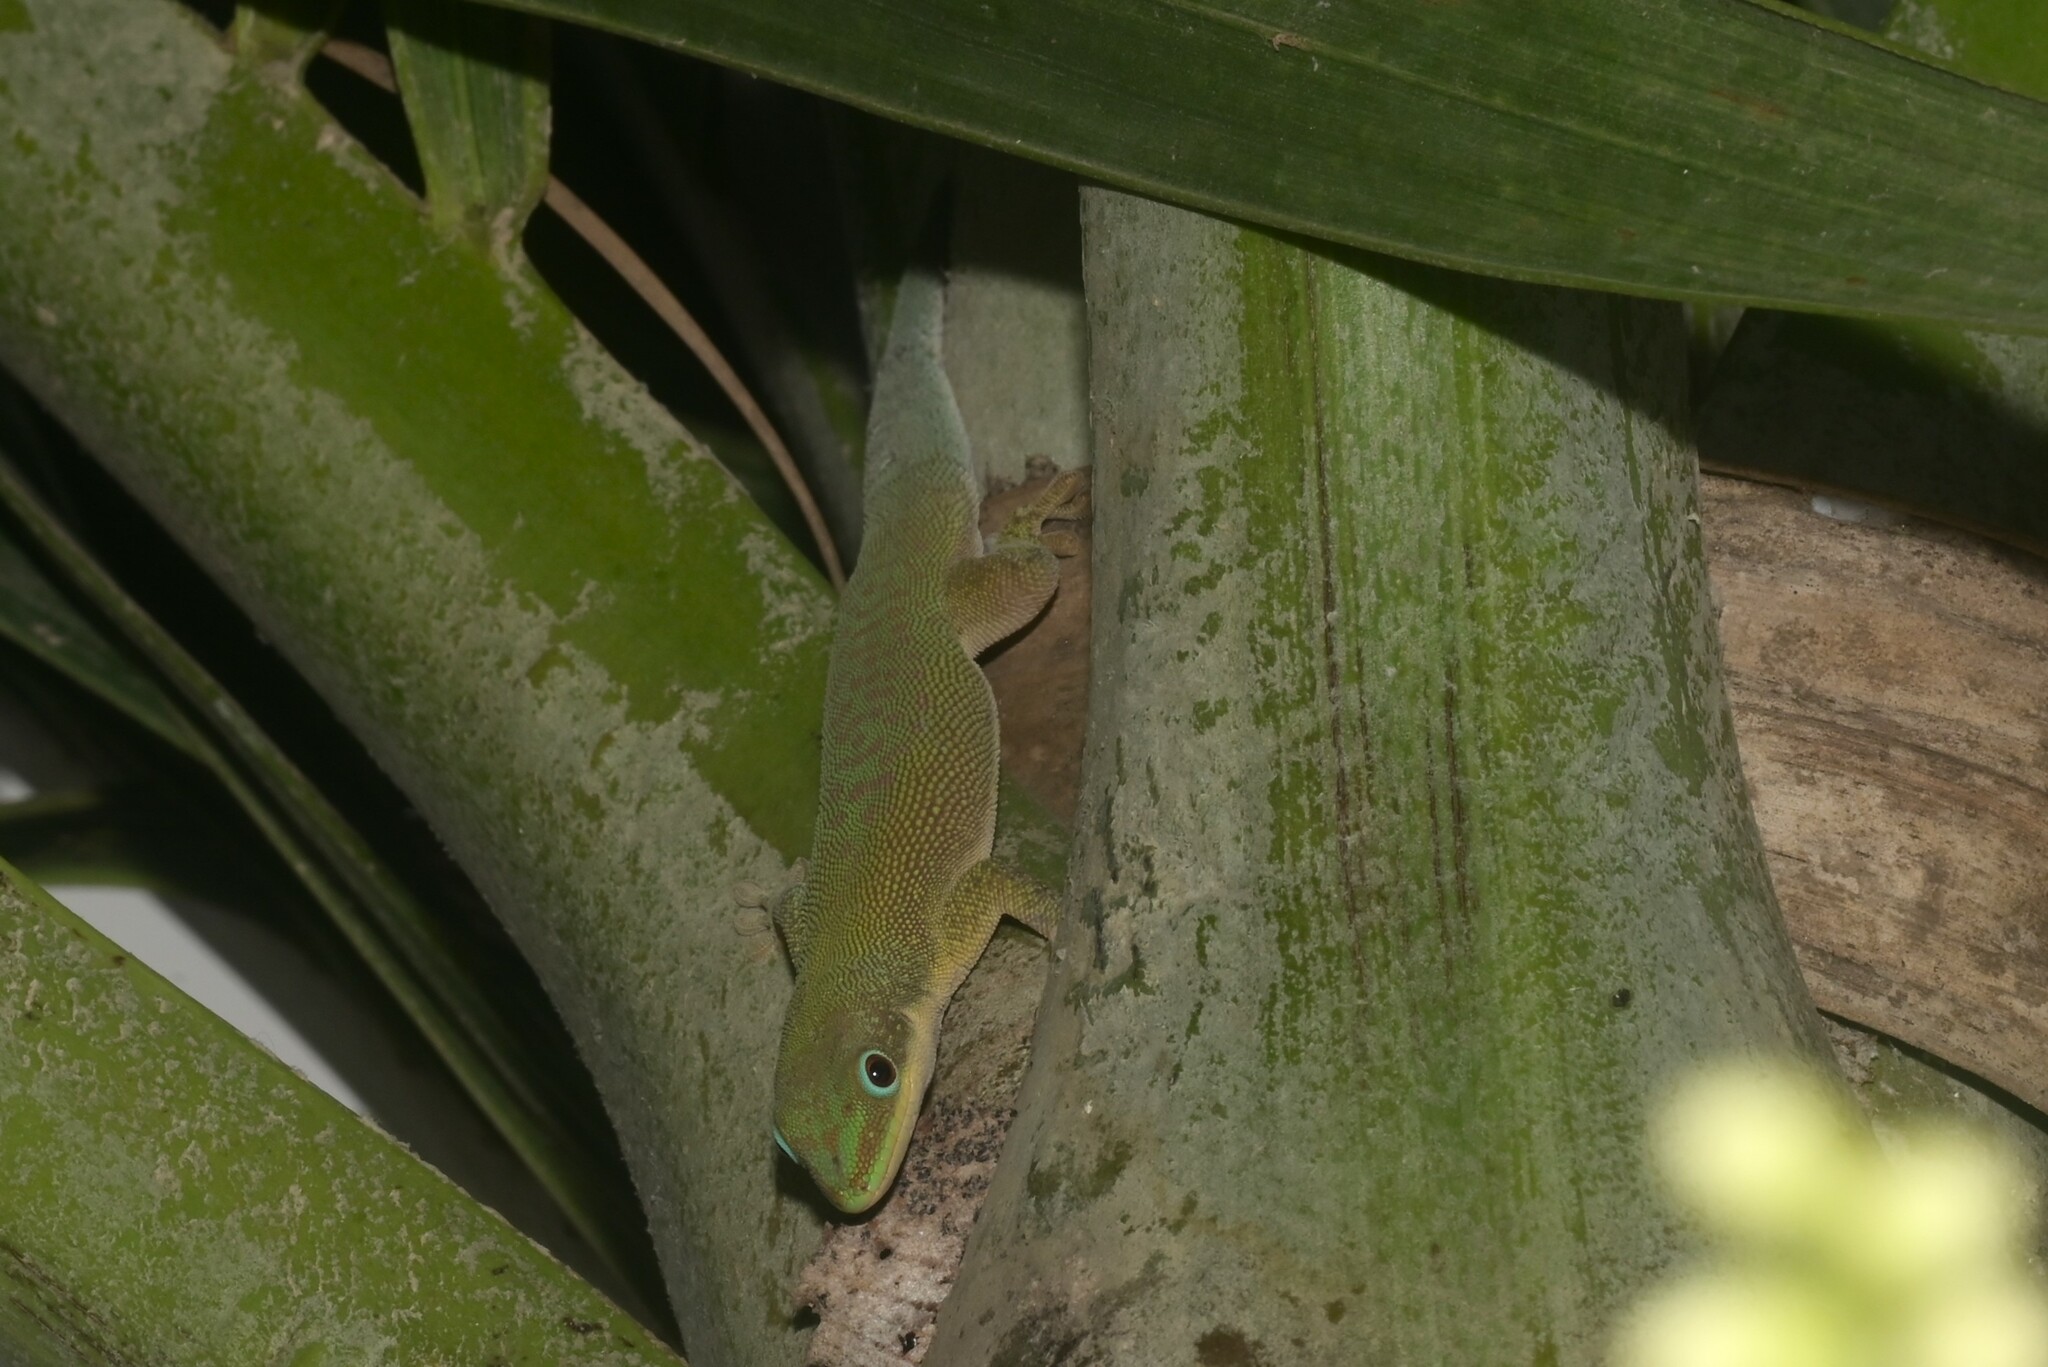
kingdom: Animalia
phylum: Chordata
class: Squamata
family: Gekkonidae
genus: Phelsuma
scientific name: Phelsuma dubia
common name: Zanzibar day gecko
